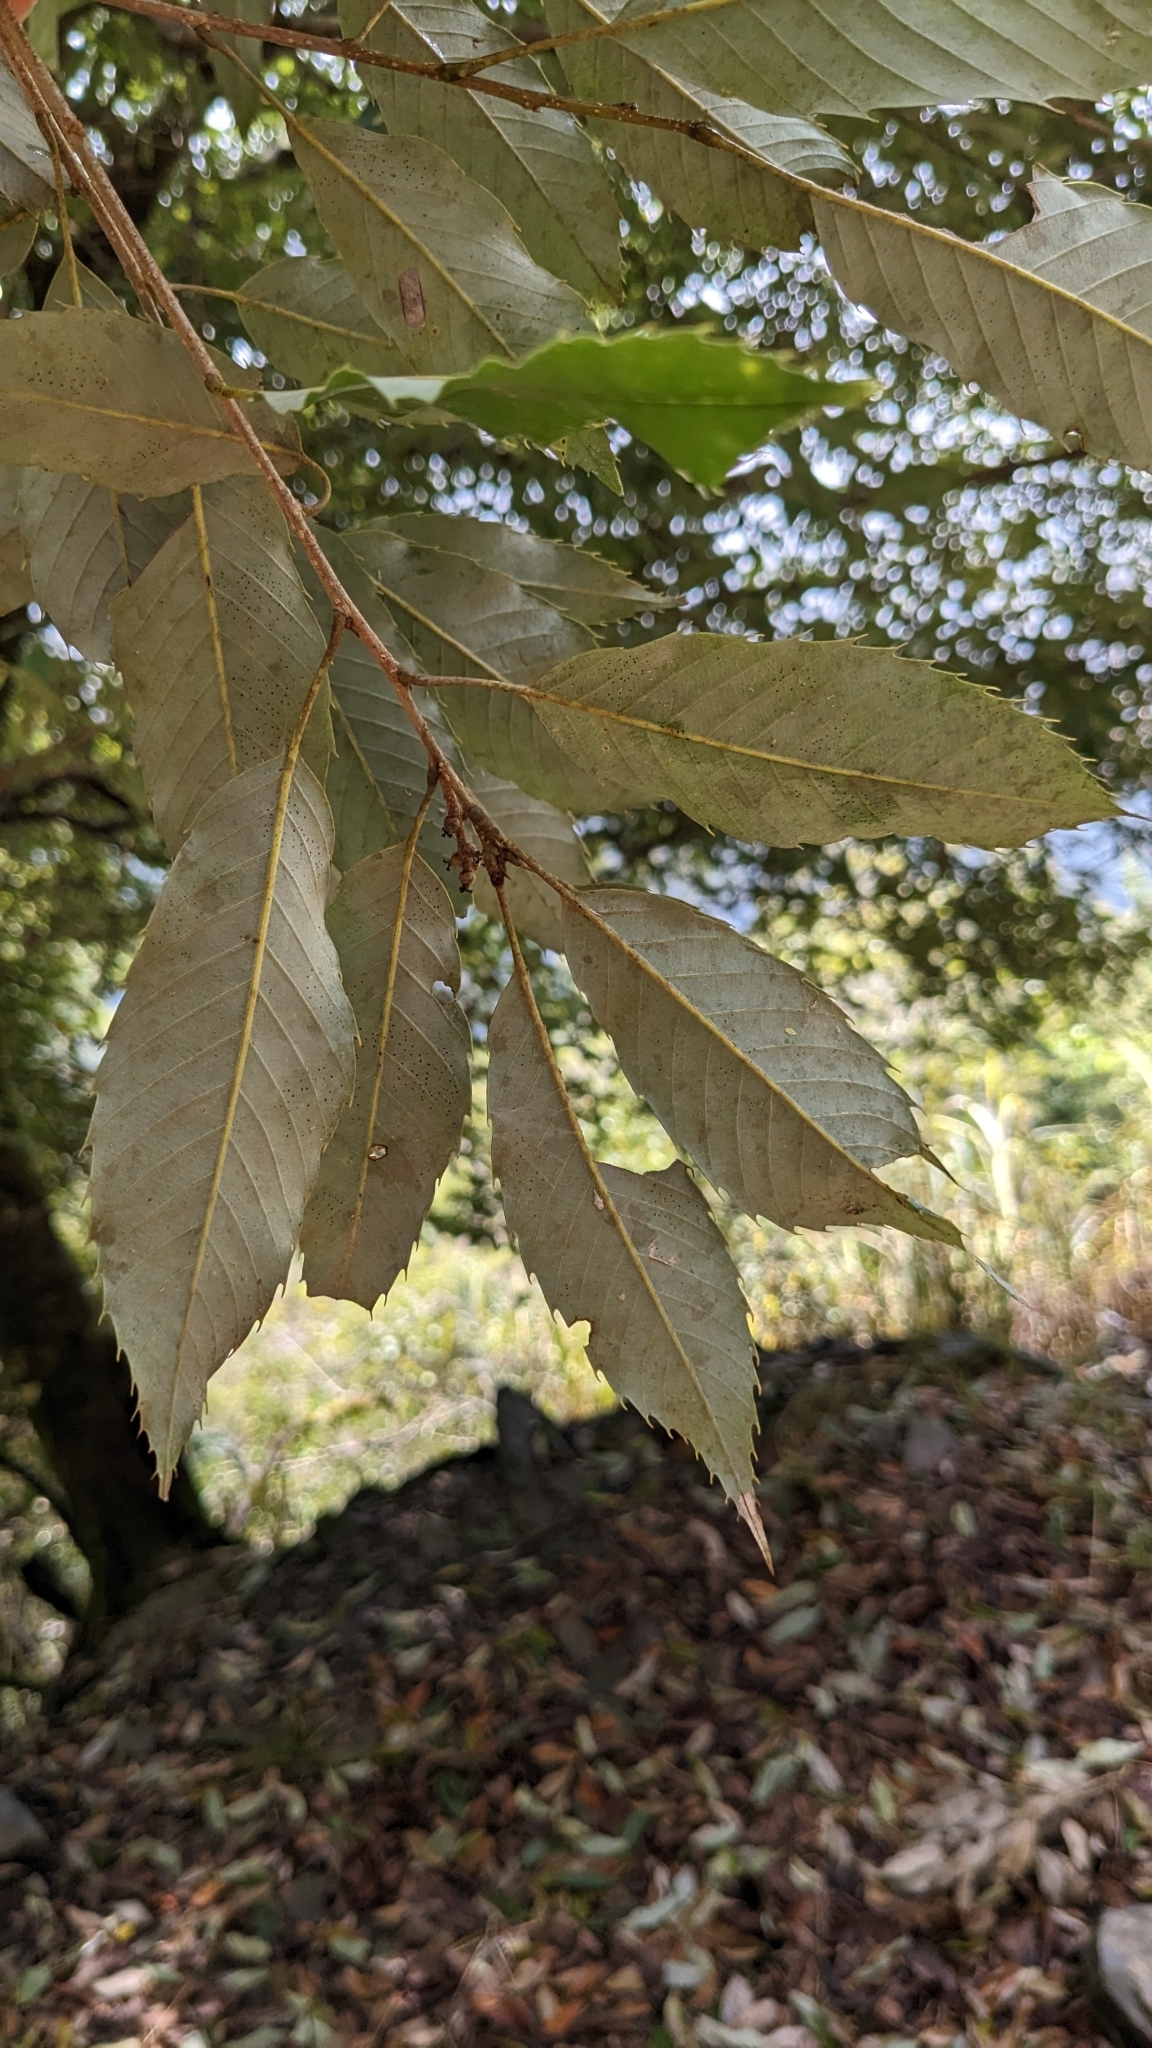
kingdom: Plantae
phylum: Tracheophyta
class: Magnoliopsida
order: Fagales
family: Fagaceae
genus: Quercus
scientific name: Quercus stenophylloides
